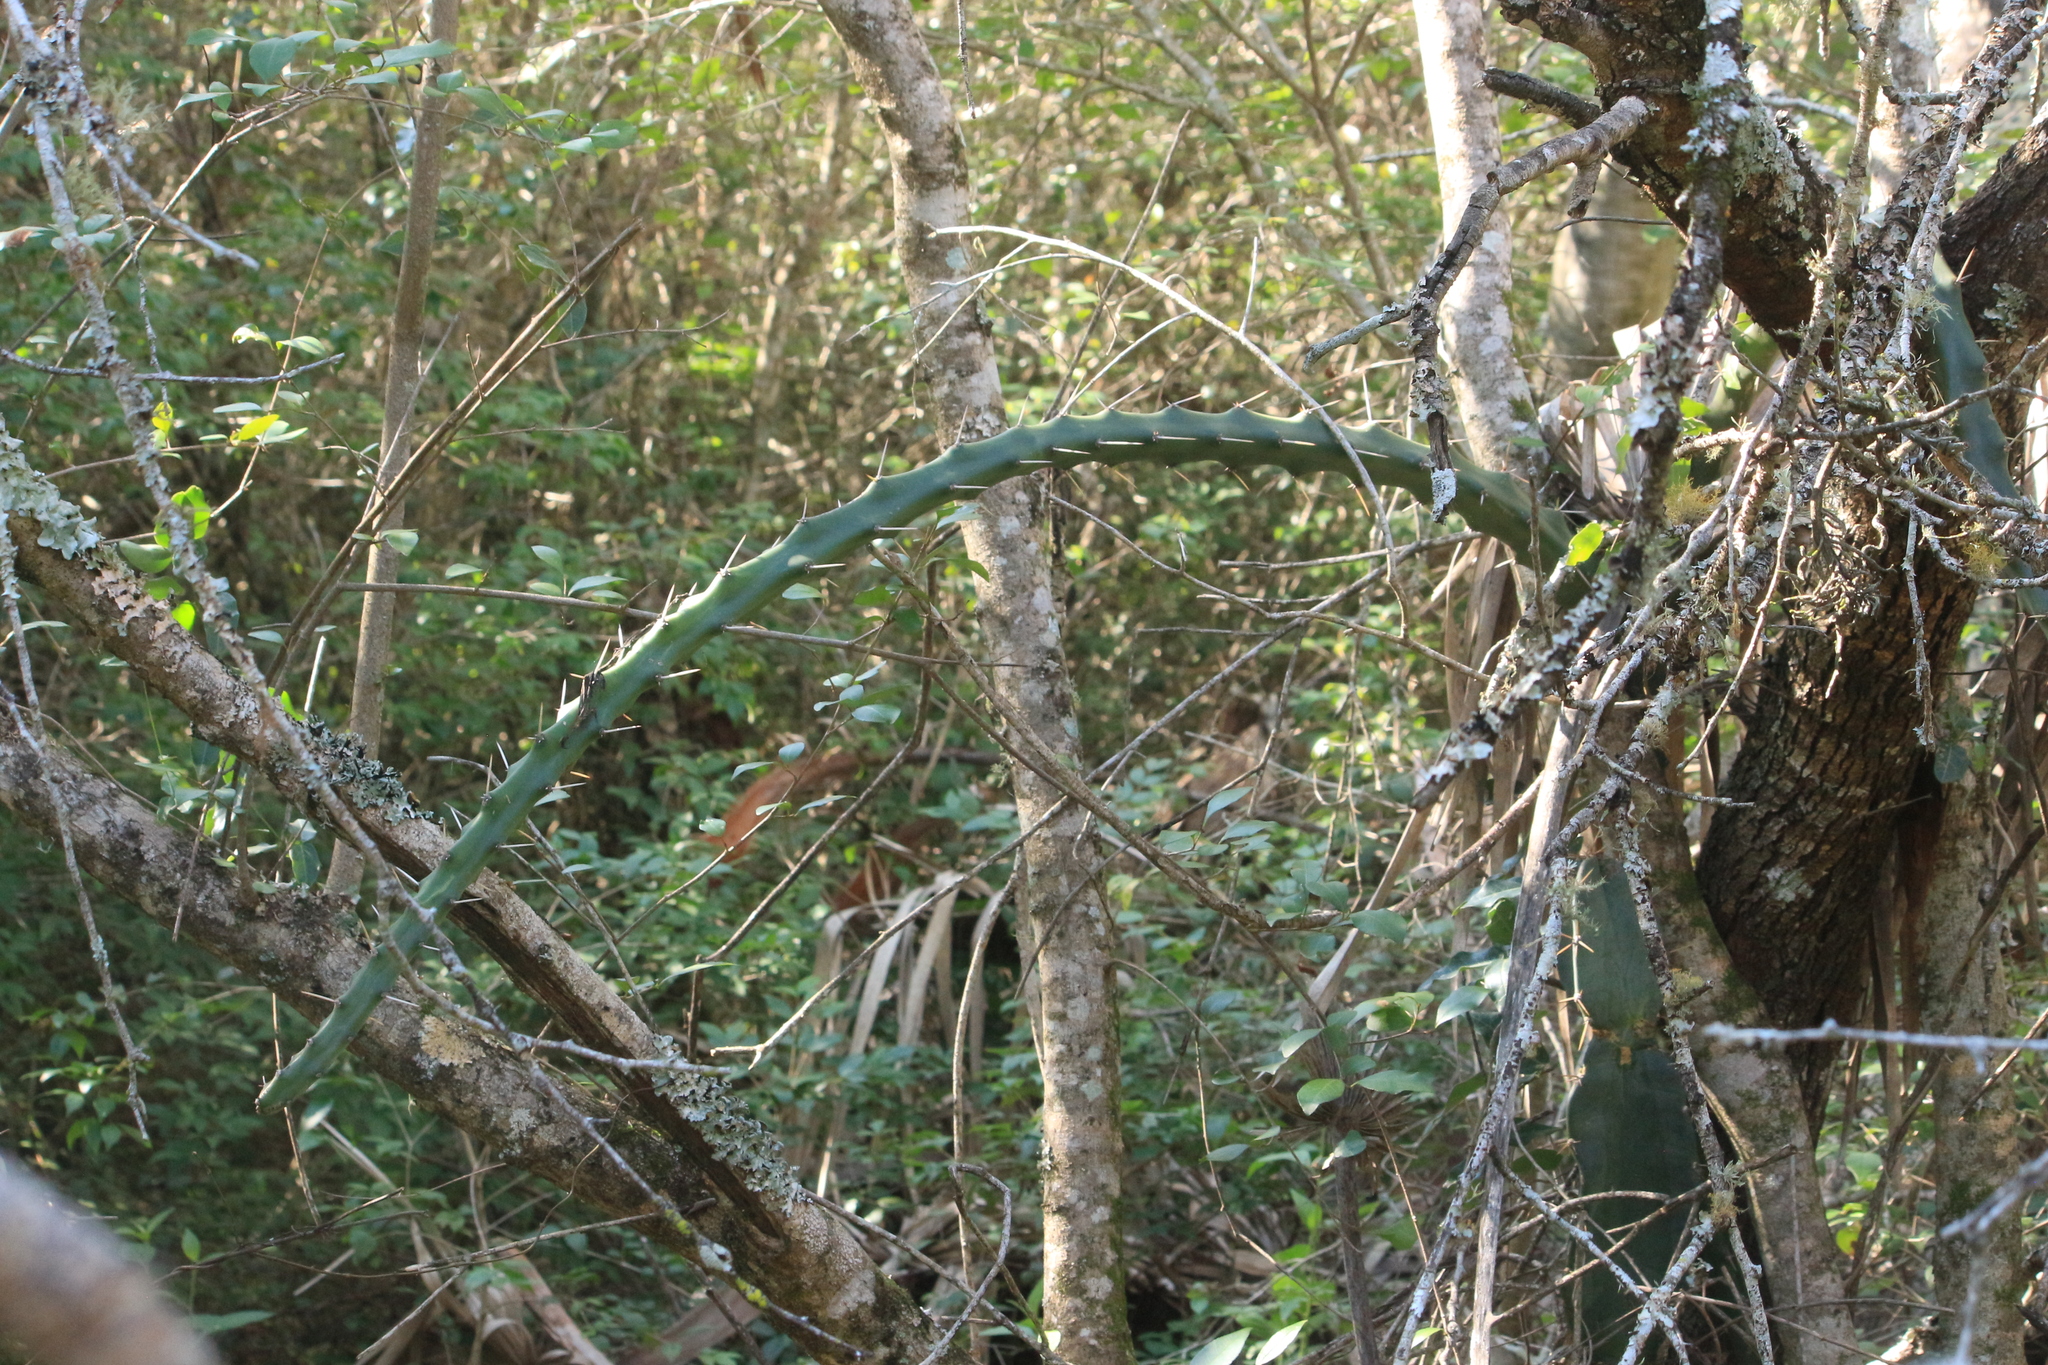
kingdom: Plantae
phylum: Tracheophyta
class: Magnoliopsida
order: Caryophyllales
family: Cactaceae
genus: Harrisia
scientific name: Harrisia martinii
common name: Moon cactus
